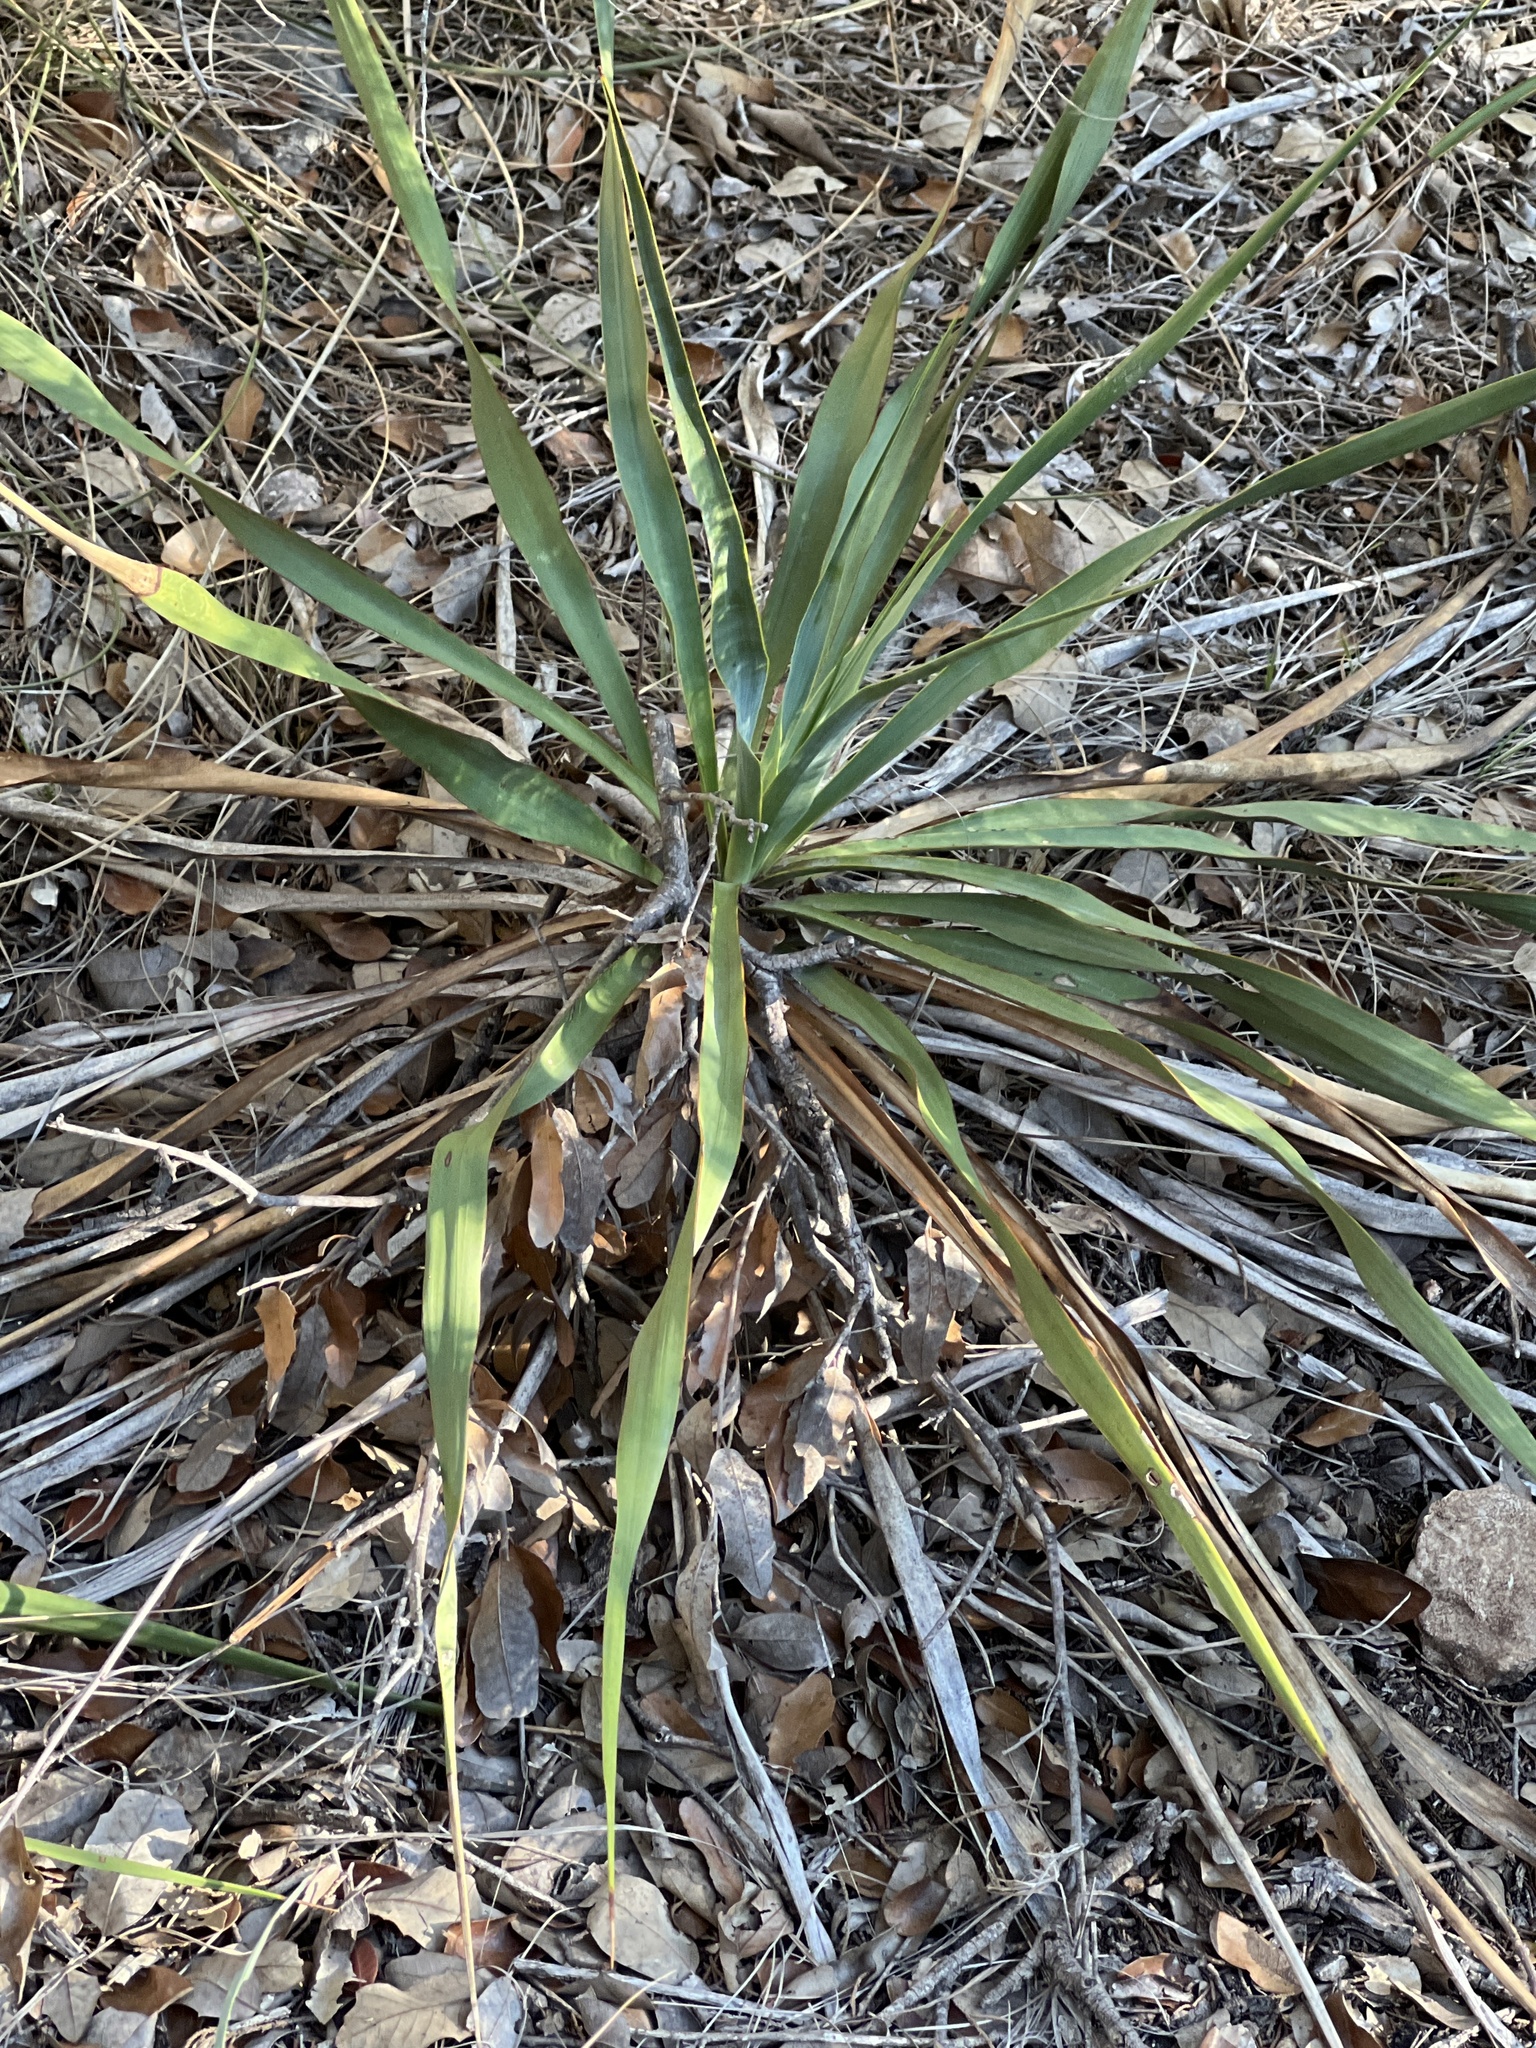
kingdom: Plantae
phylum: Tracheophyta
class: Liliopsida
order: Asparagales
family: Asparagaceae
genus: Yucca
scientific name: Yucca rupicola
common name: Twisted-leaf spanish-dagger
